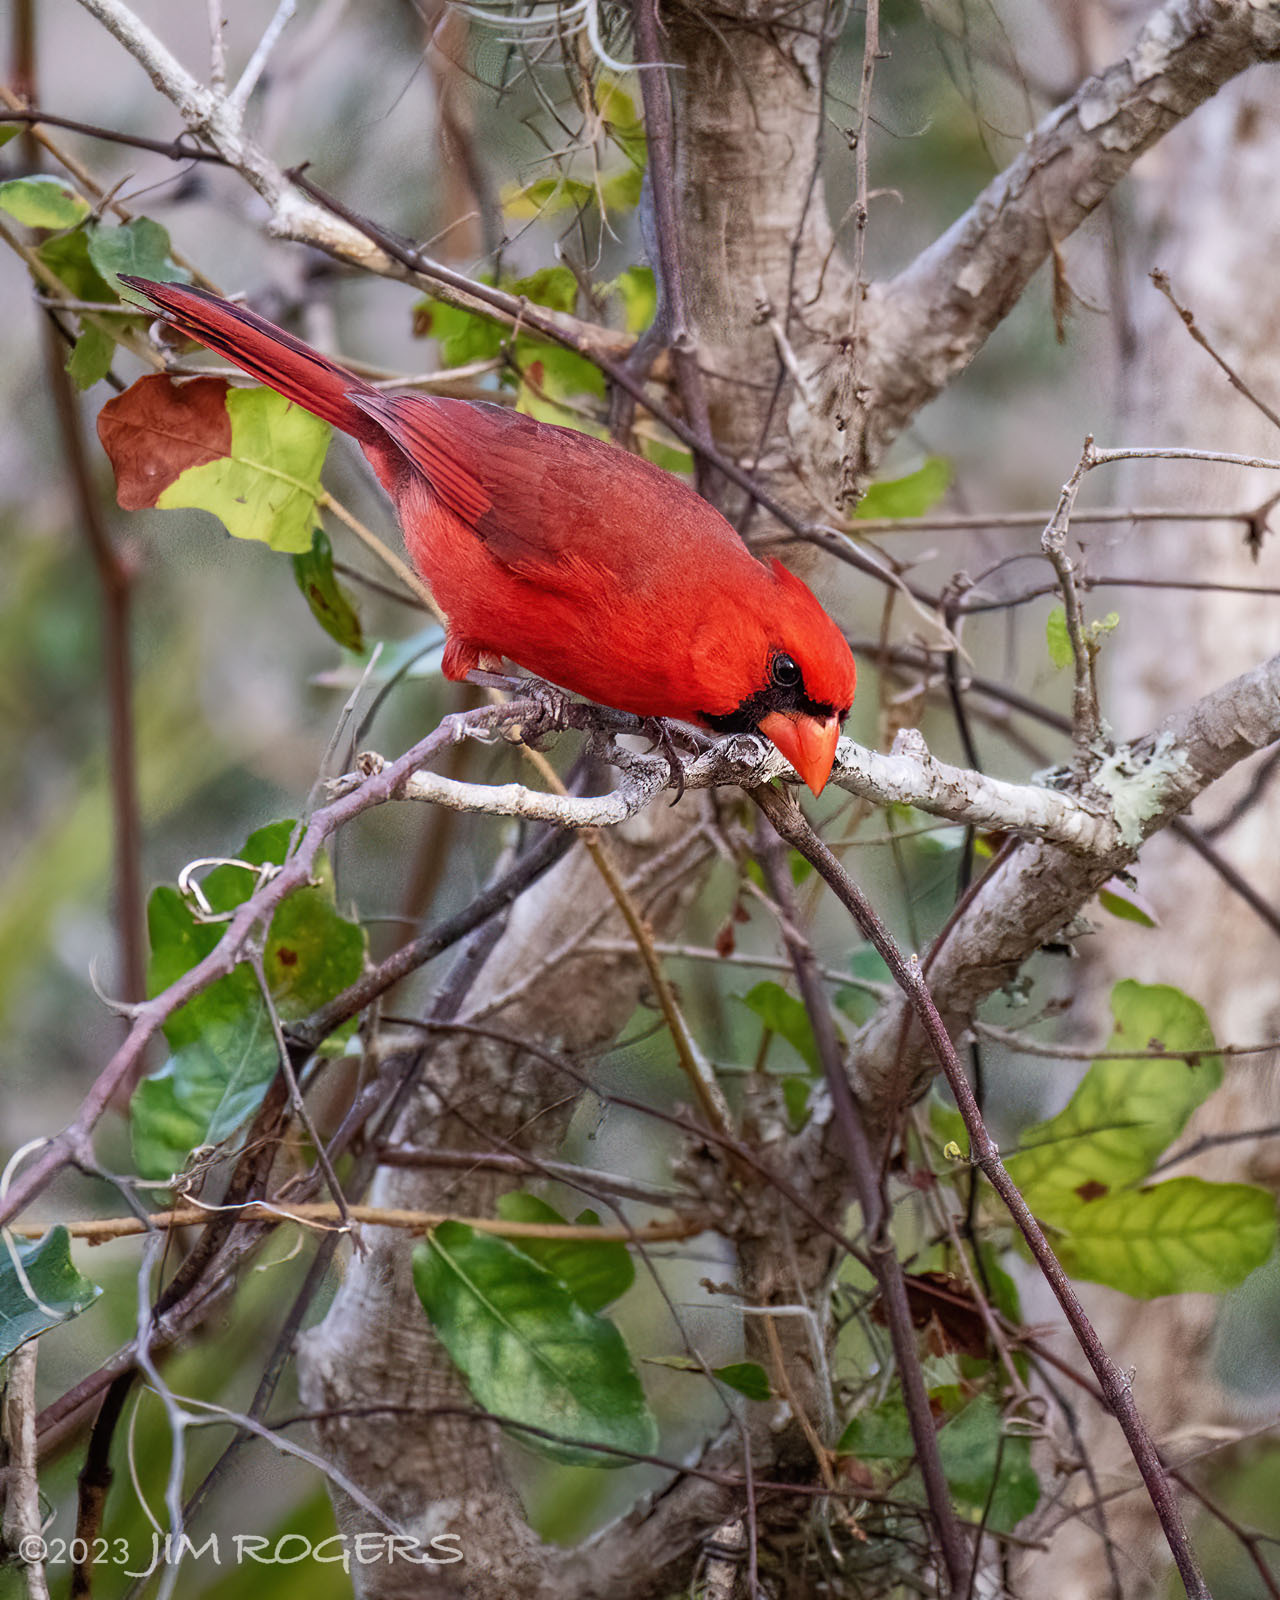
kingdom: Animalia
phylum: Chordata
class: Aves
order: Passeriformes
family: Cardinalidae
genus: Cardinalis
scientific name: Cardinalis cardinalis
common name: Northern cardinal
